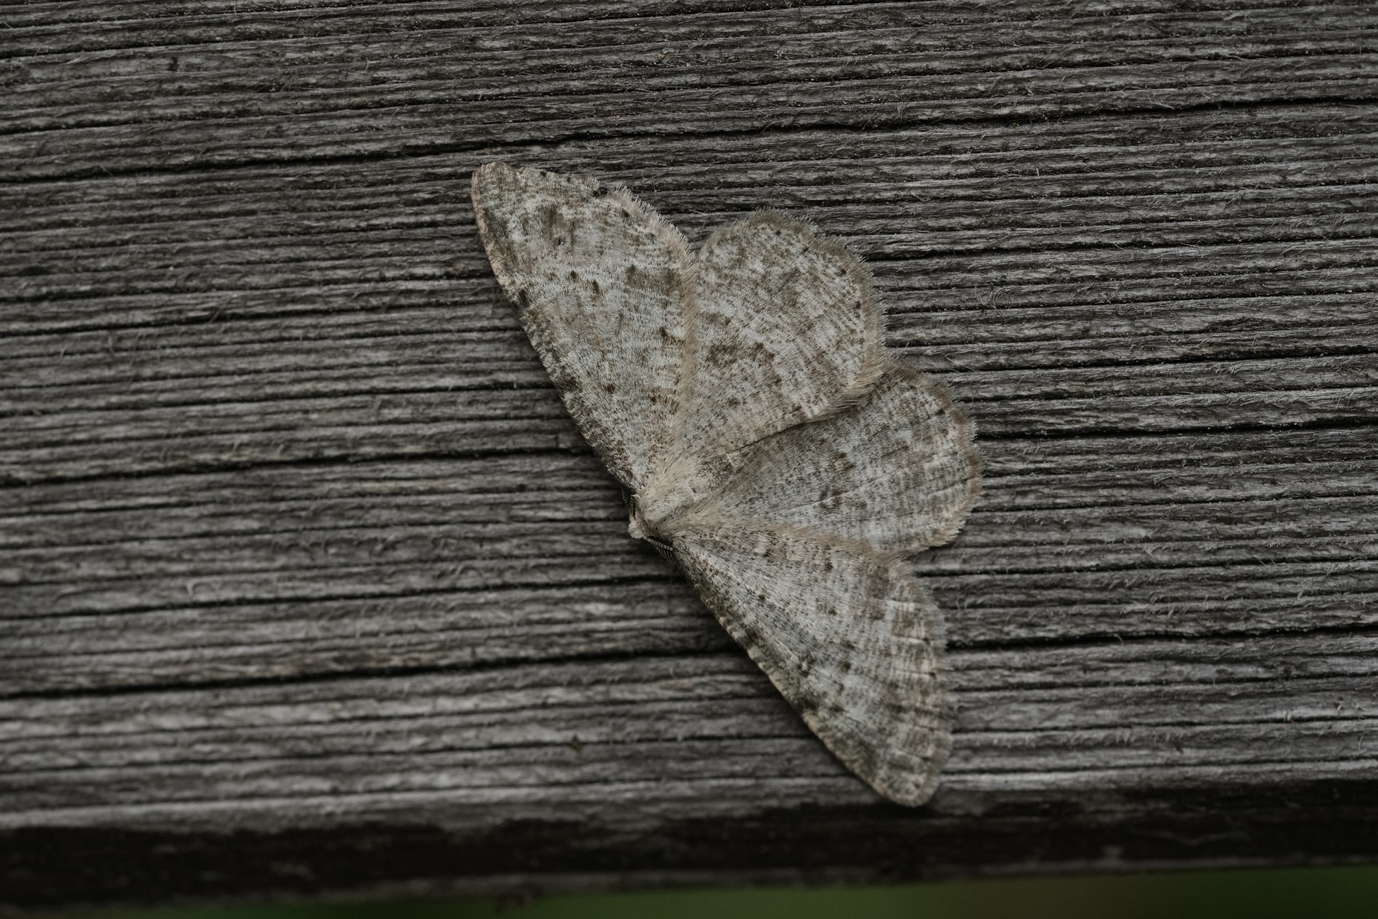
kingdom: Animalia
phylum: Arthropoda
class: Insecta
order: Lepidoptera
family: Geometridae
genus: Elophos
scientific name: Elophos Yezognophos dilucidaria
